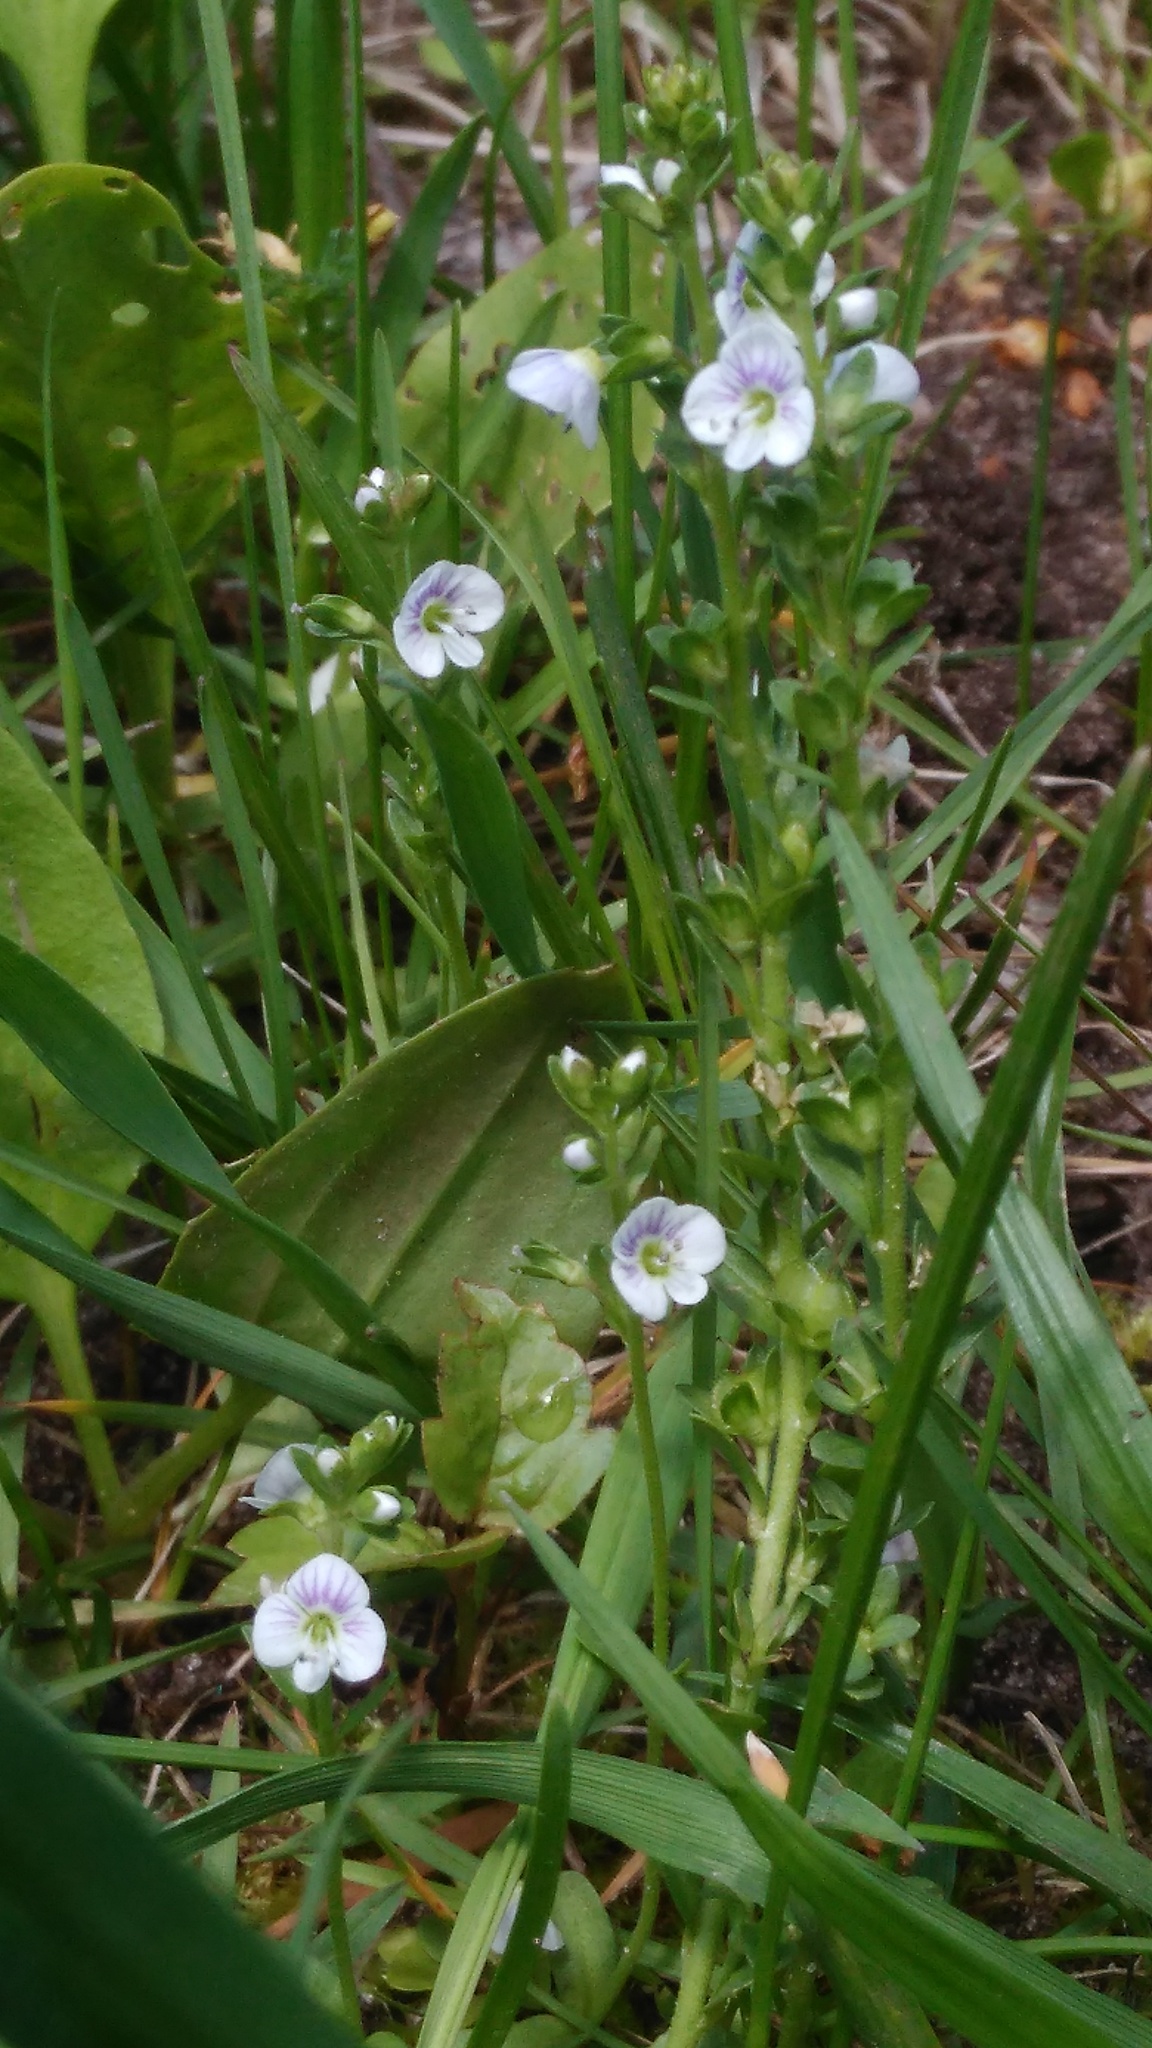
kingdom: Plantae
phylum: Tracheophyta
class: Magnoliopsida
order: Lamiales
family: Plantaginaceae
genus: Veronica
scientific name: Veronica serpyllifolia
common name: Thyme-leaved speedwell
